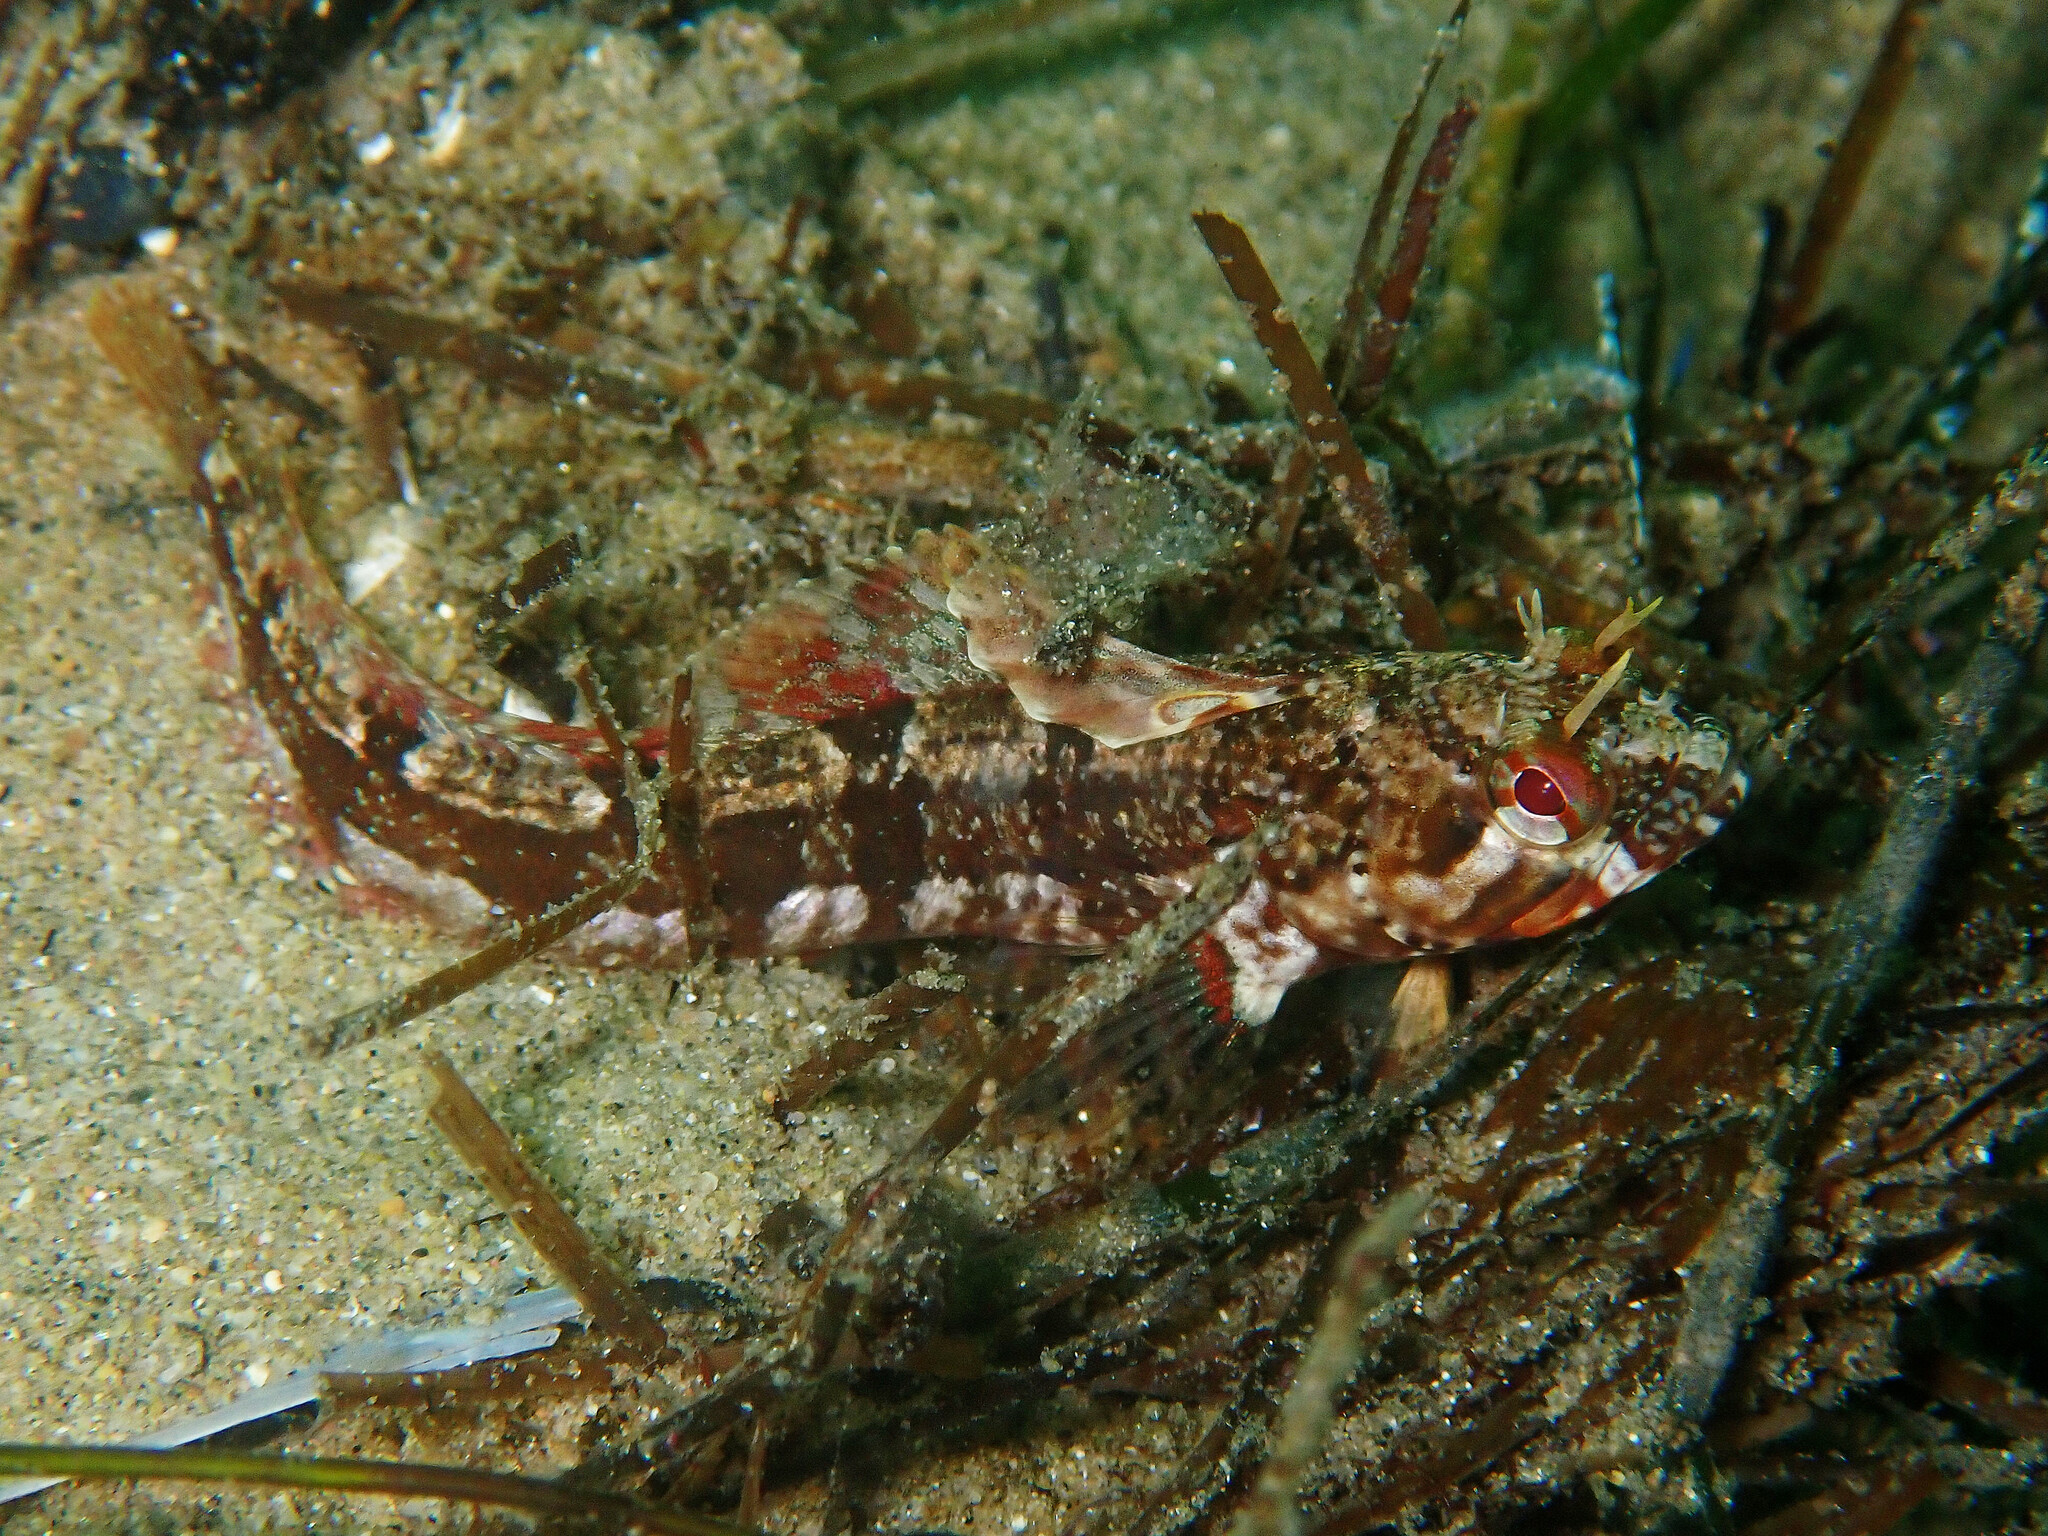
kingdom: Animalia
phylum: Chordata
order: Perciformes
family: Chaenopsidae
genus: Neoclinus
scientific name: Neoclinus blanchardi
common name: Sarcastic fringehead
